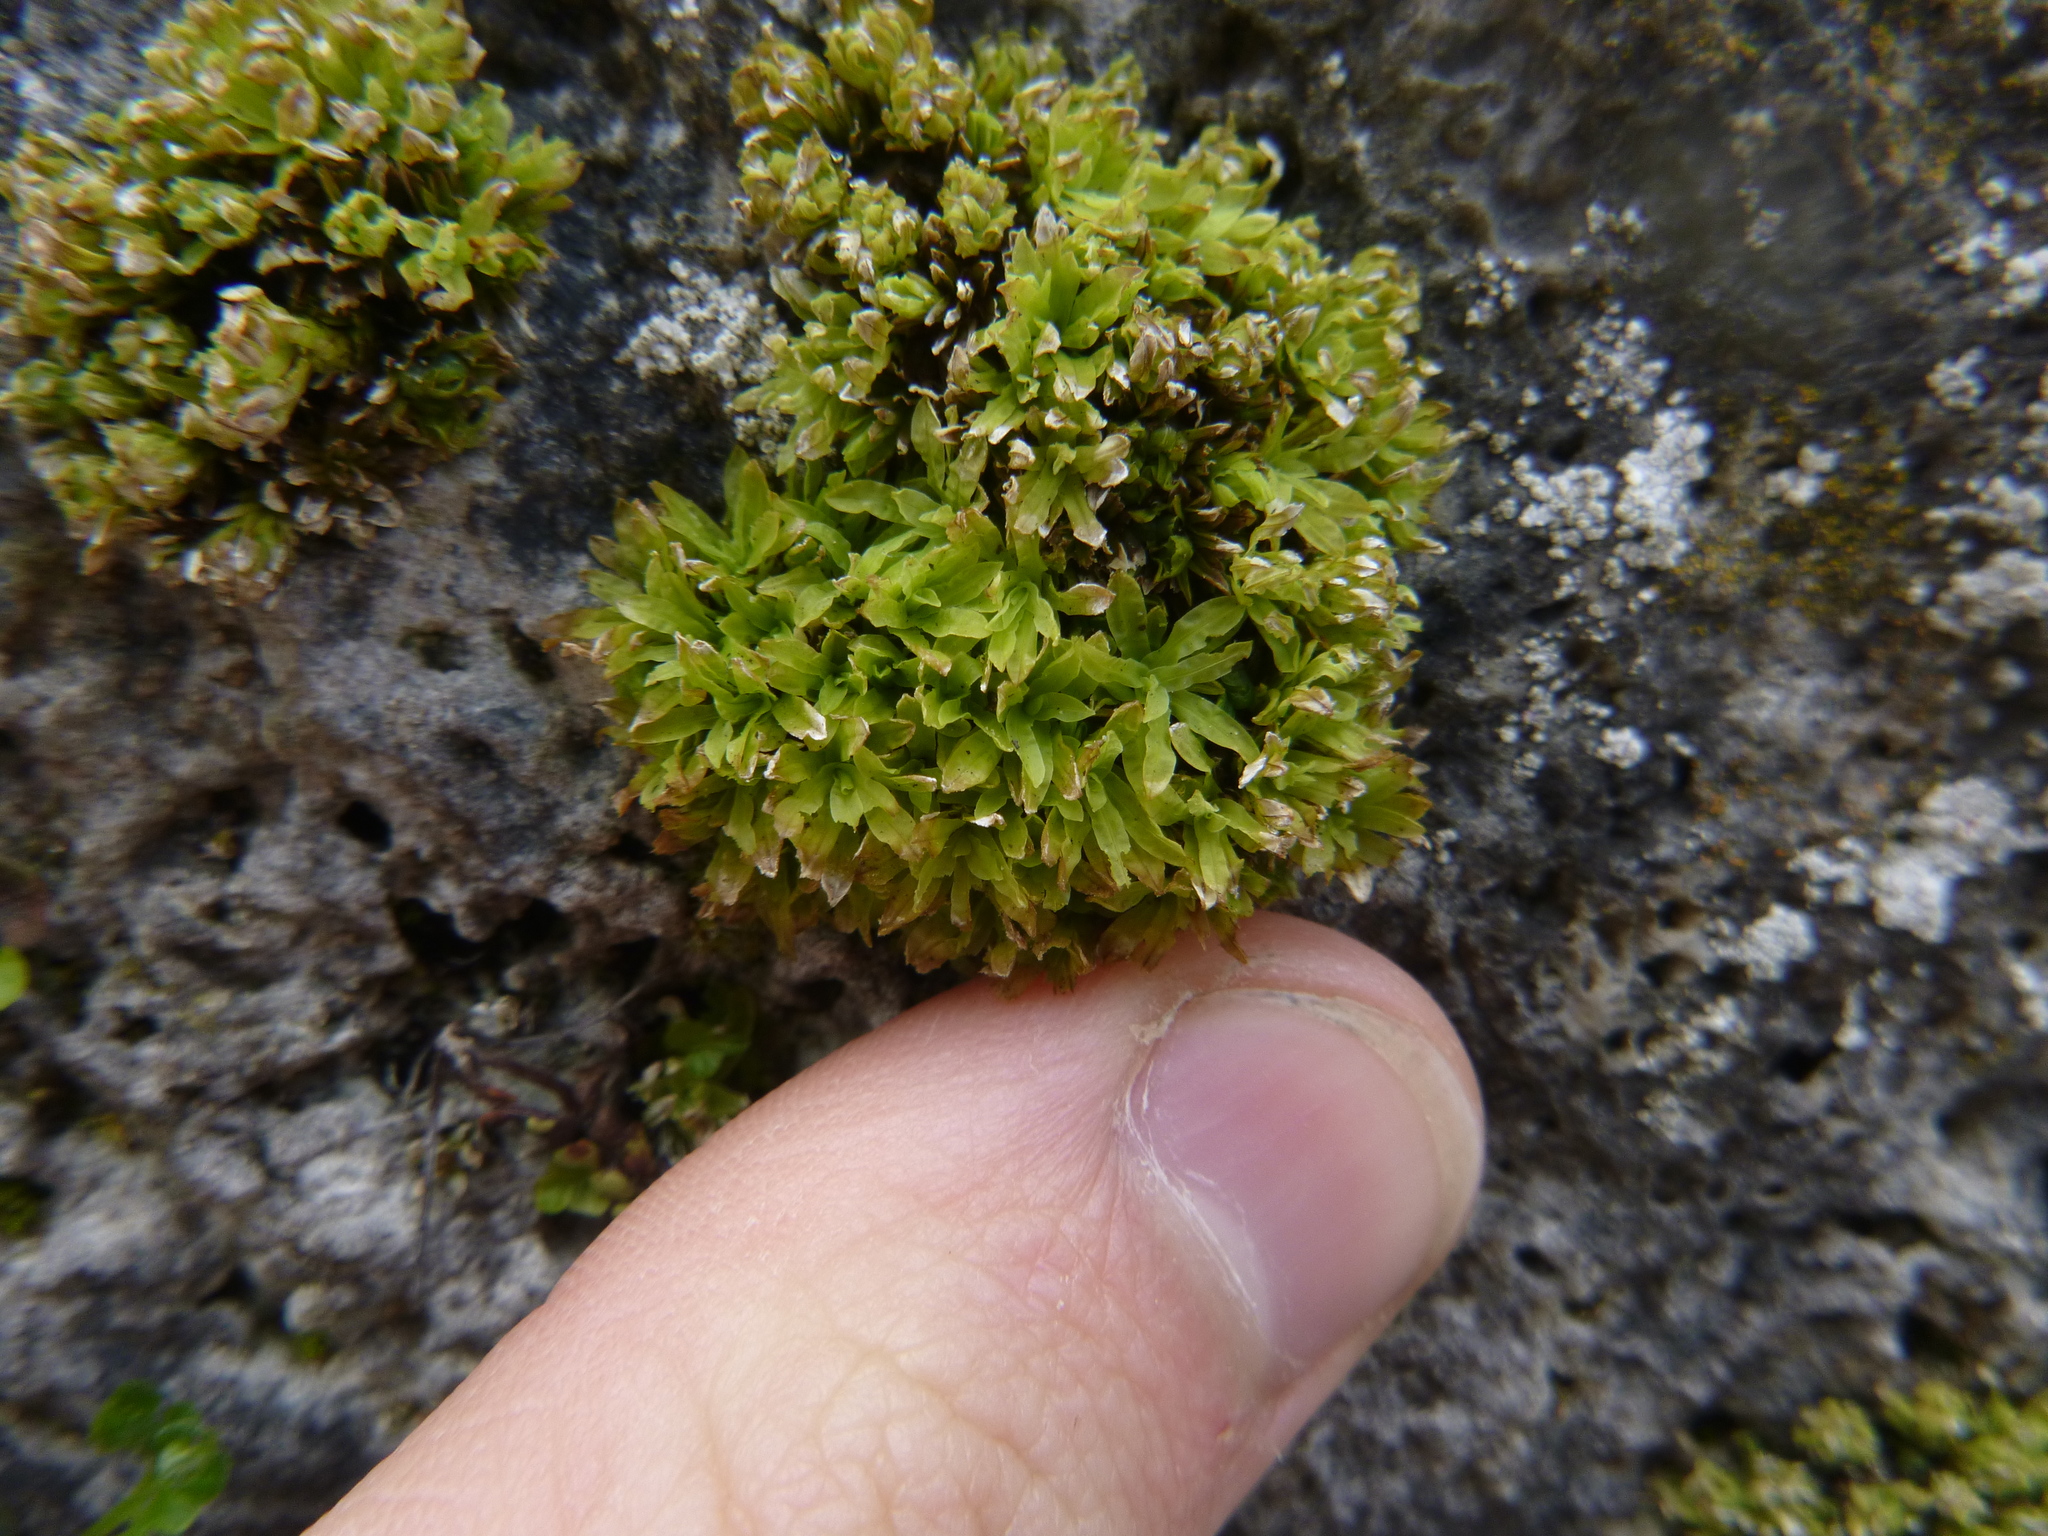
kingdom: Plantae
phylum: Bryophyta
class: Bryopsida
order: Encalyptales
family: Encalyptaceae
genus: Encalypta
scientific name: Encalypta streptocarpa
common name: Spiral extinguisher-moss
